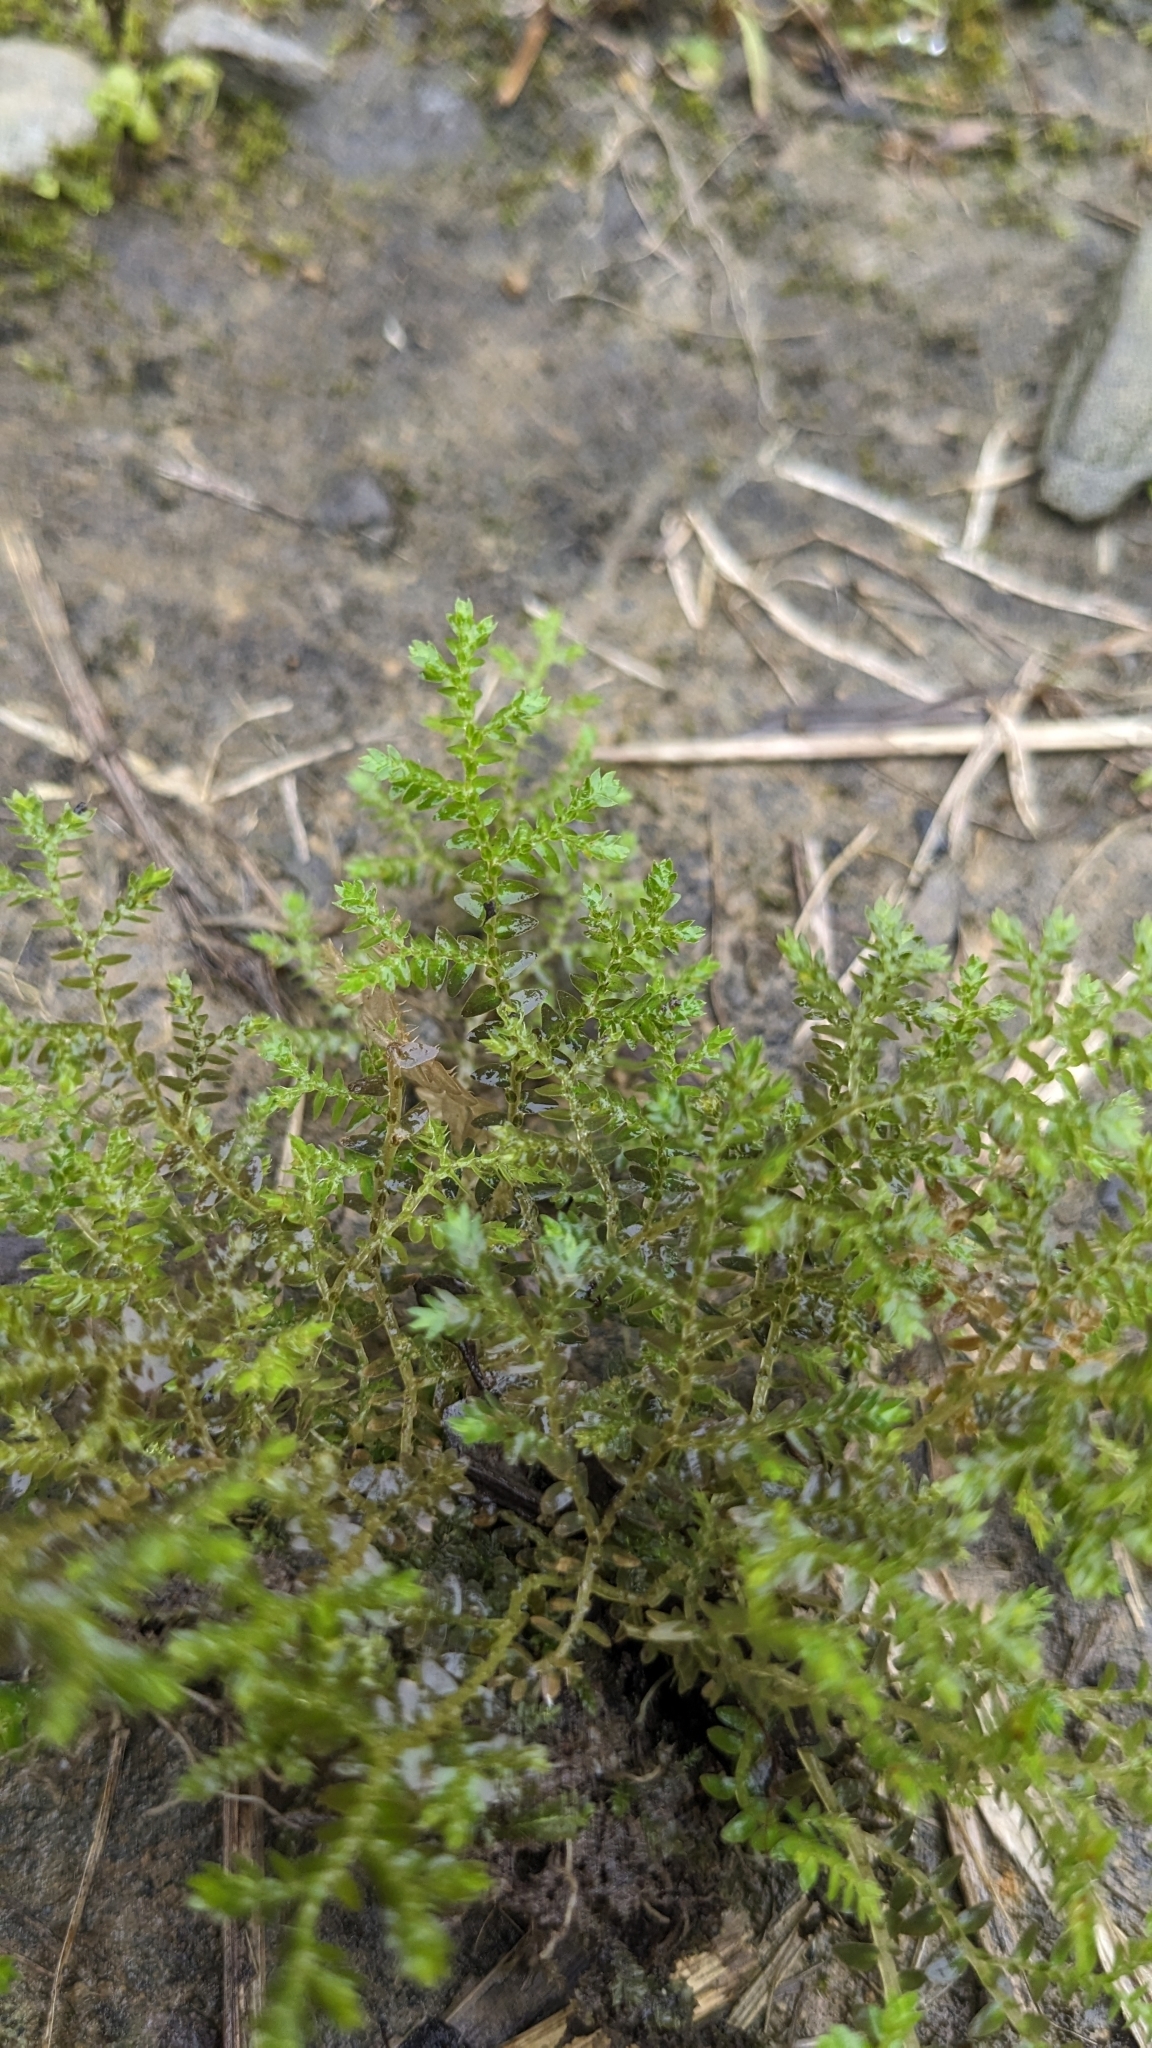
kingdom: Plantae
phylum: Tracheophyta
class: Lycopodiopsida
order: Selaginellales
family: Selaginellaceae
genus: Selaginella
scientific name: Selaginella aristata
